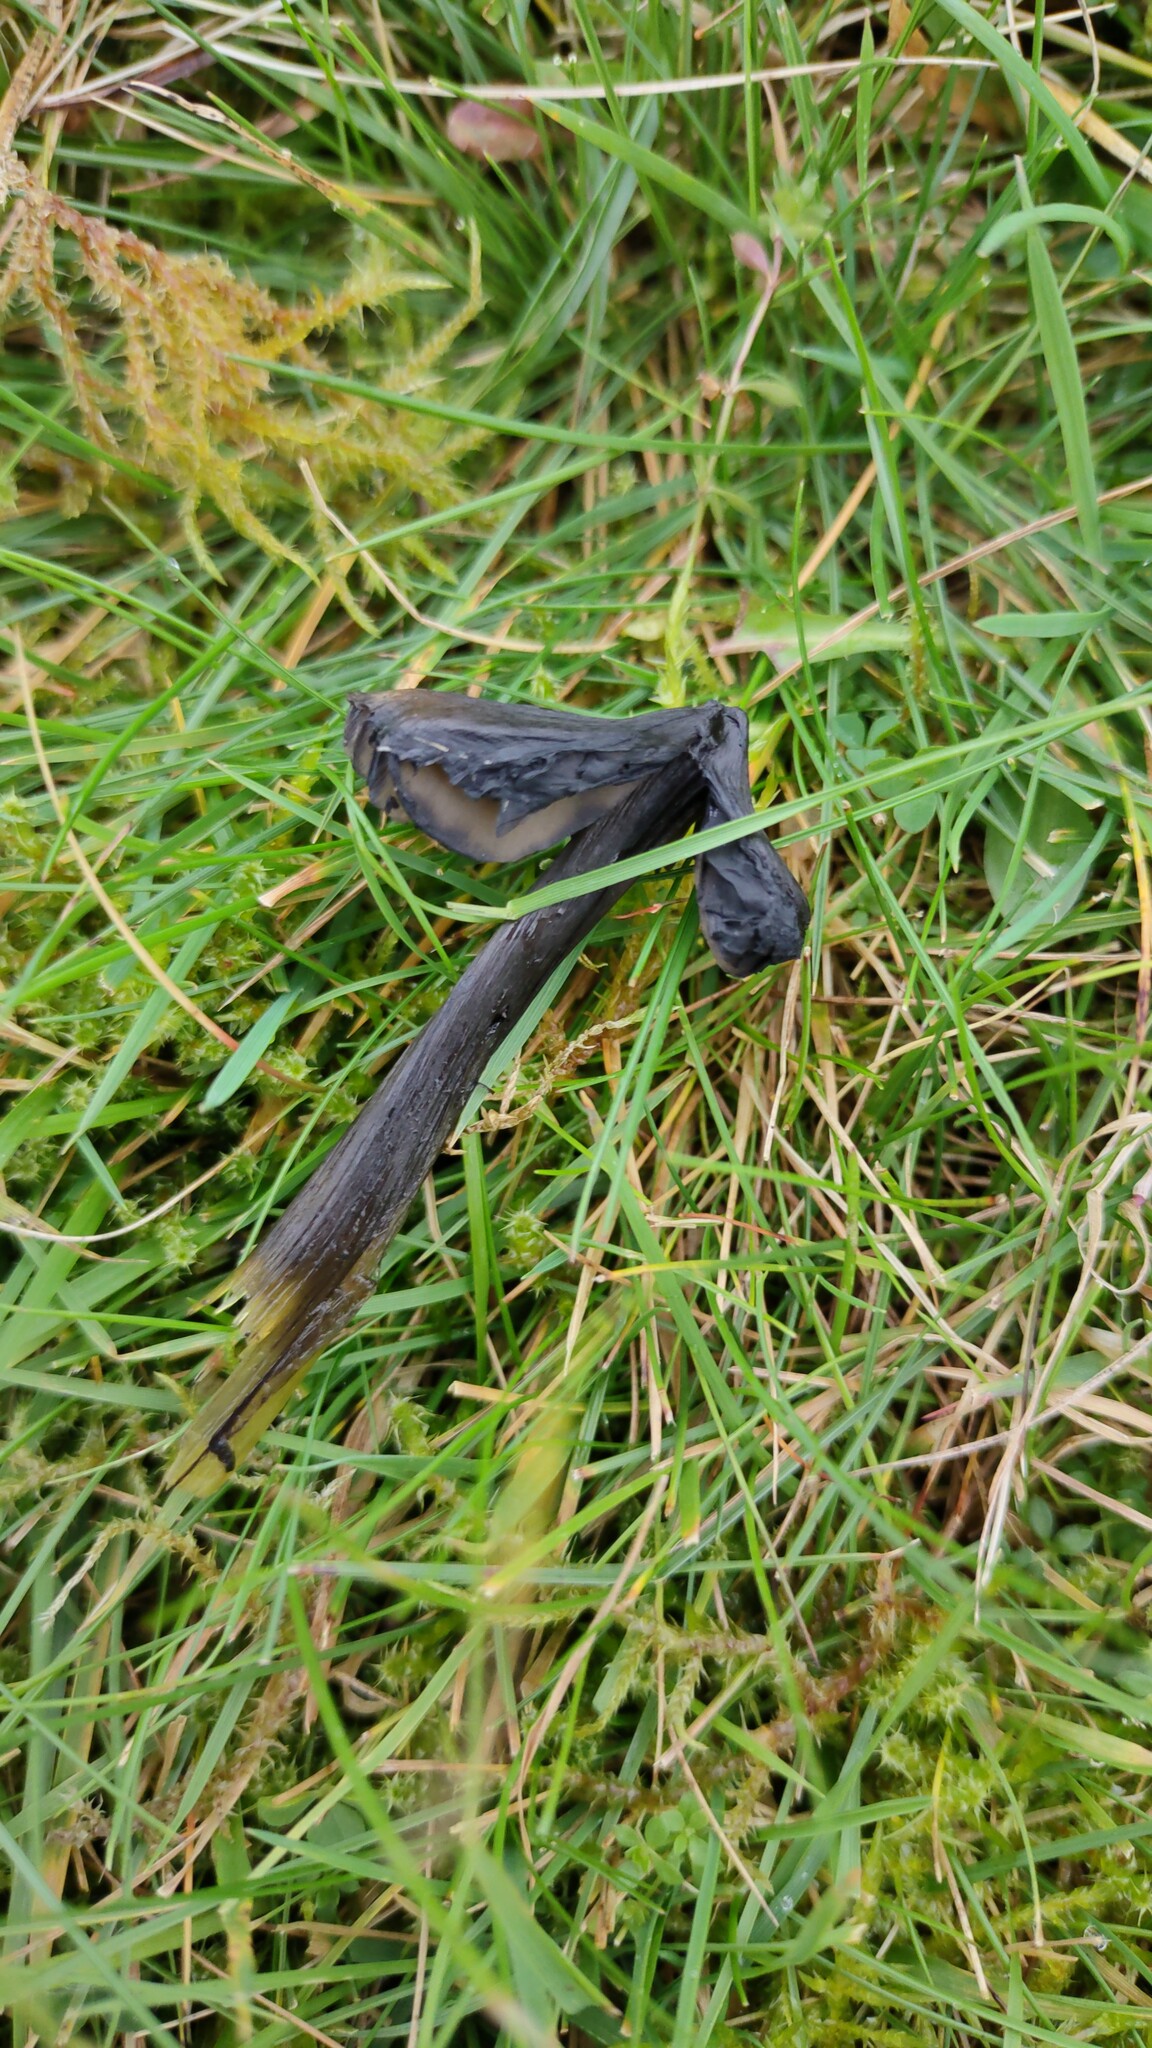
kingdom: Fungi
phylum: Basidiomycota
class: Agaricomycetes
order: Agaricales
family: Hygrophoraceae
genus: Hygrocybe
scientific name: Hygrocybe conica
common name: Blackening wax-cap
